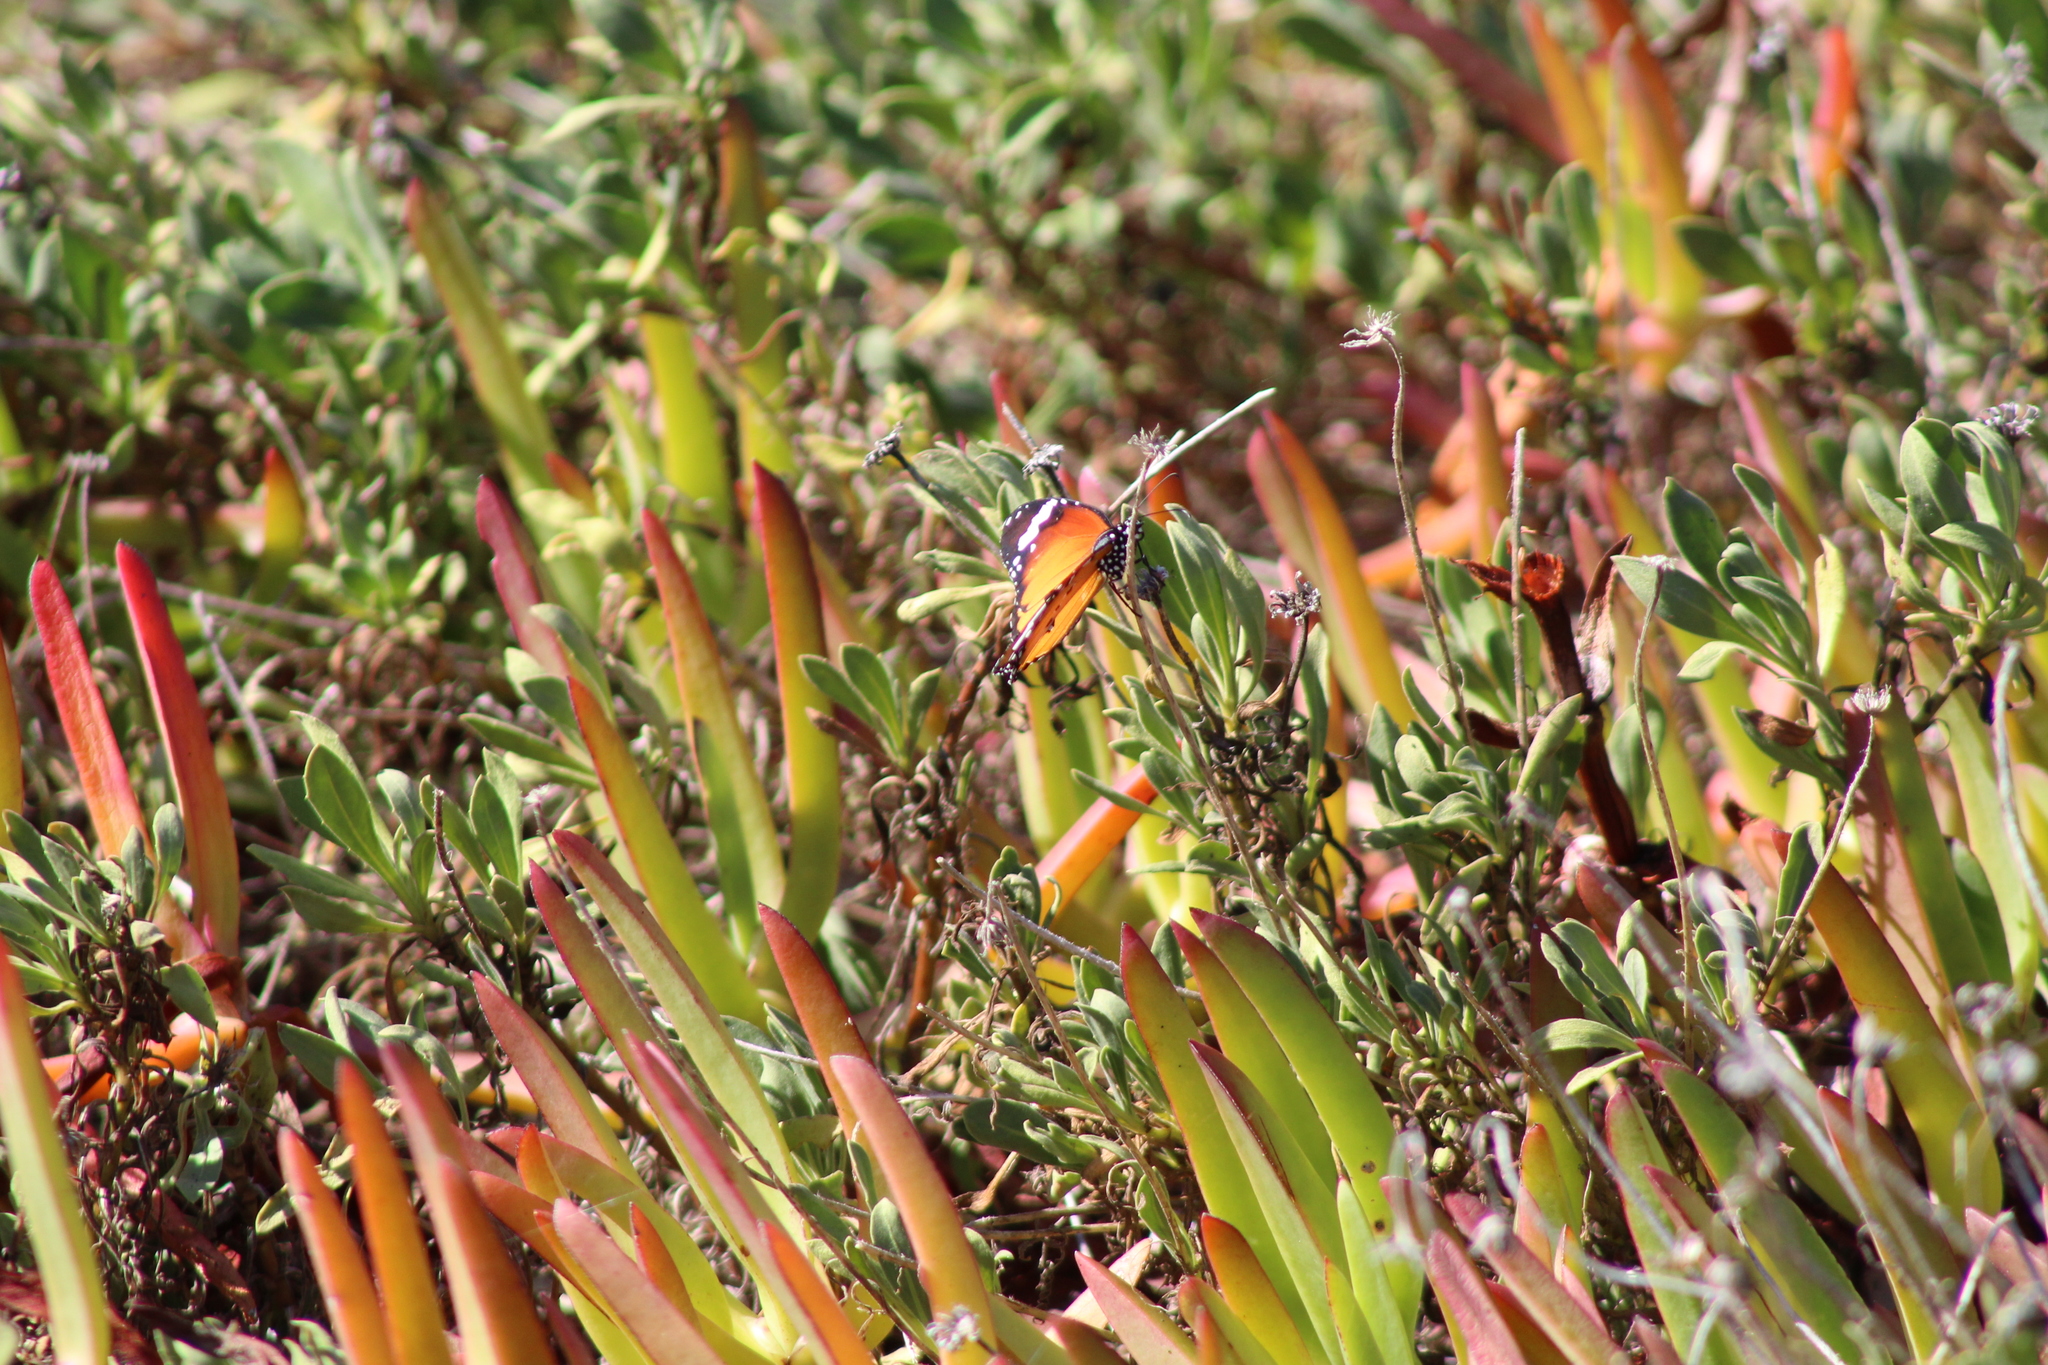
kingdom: Animalia
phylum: Arthropoda
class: Insecta
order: Lepidoptera
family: Nymphalidae
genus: Danaus
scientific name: Danaus chrysippus
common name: Plain tiger
